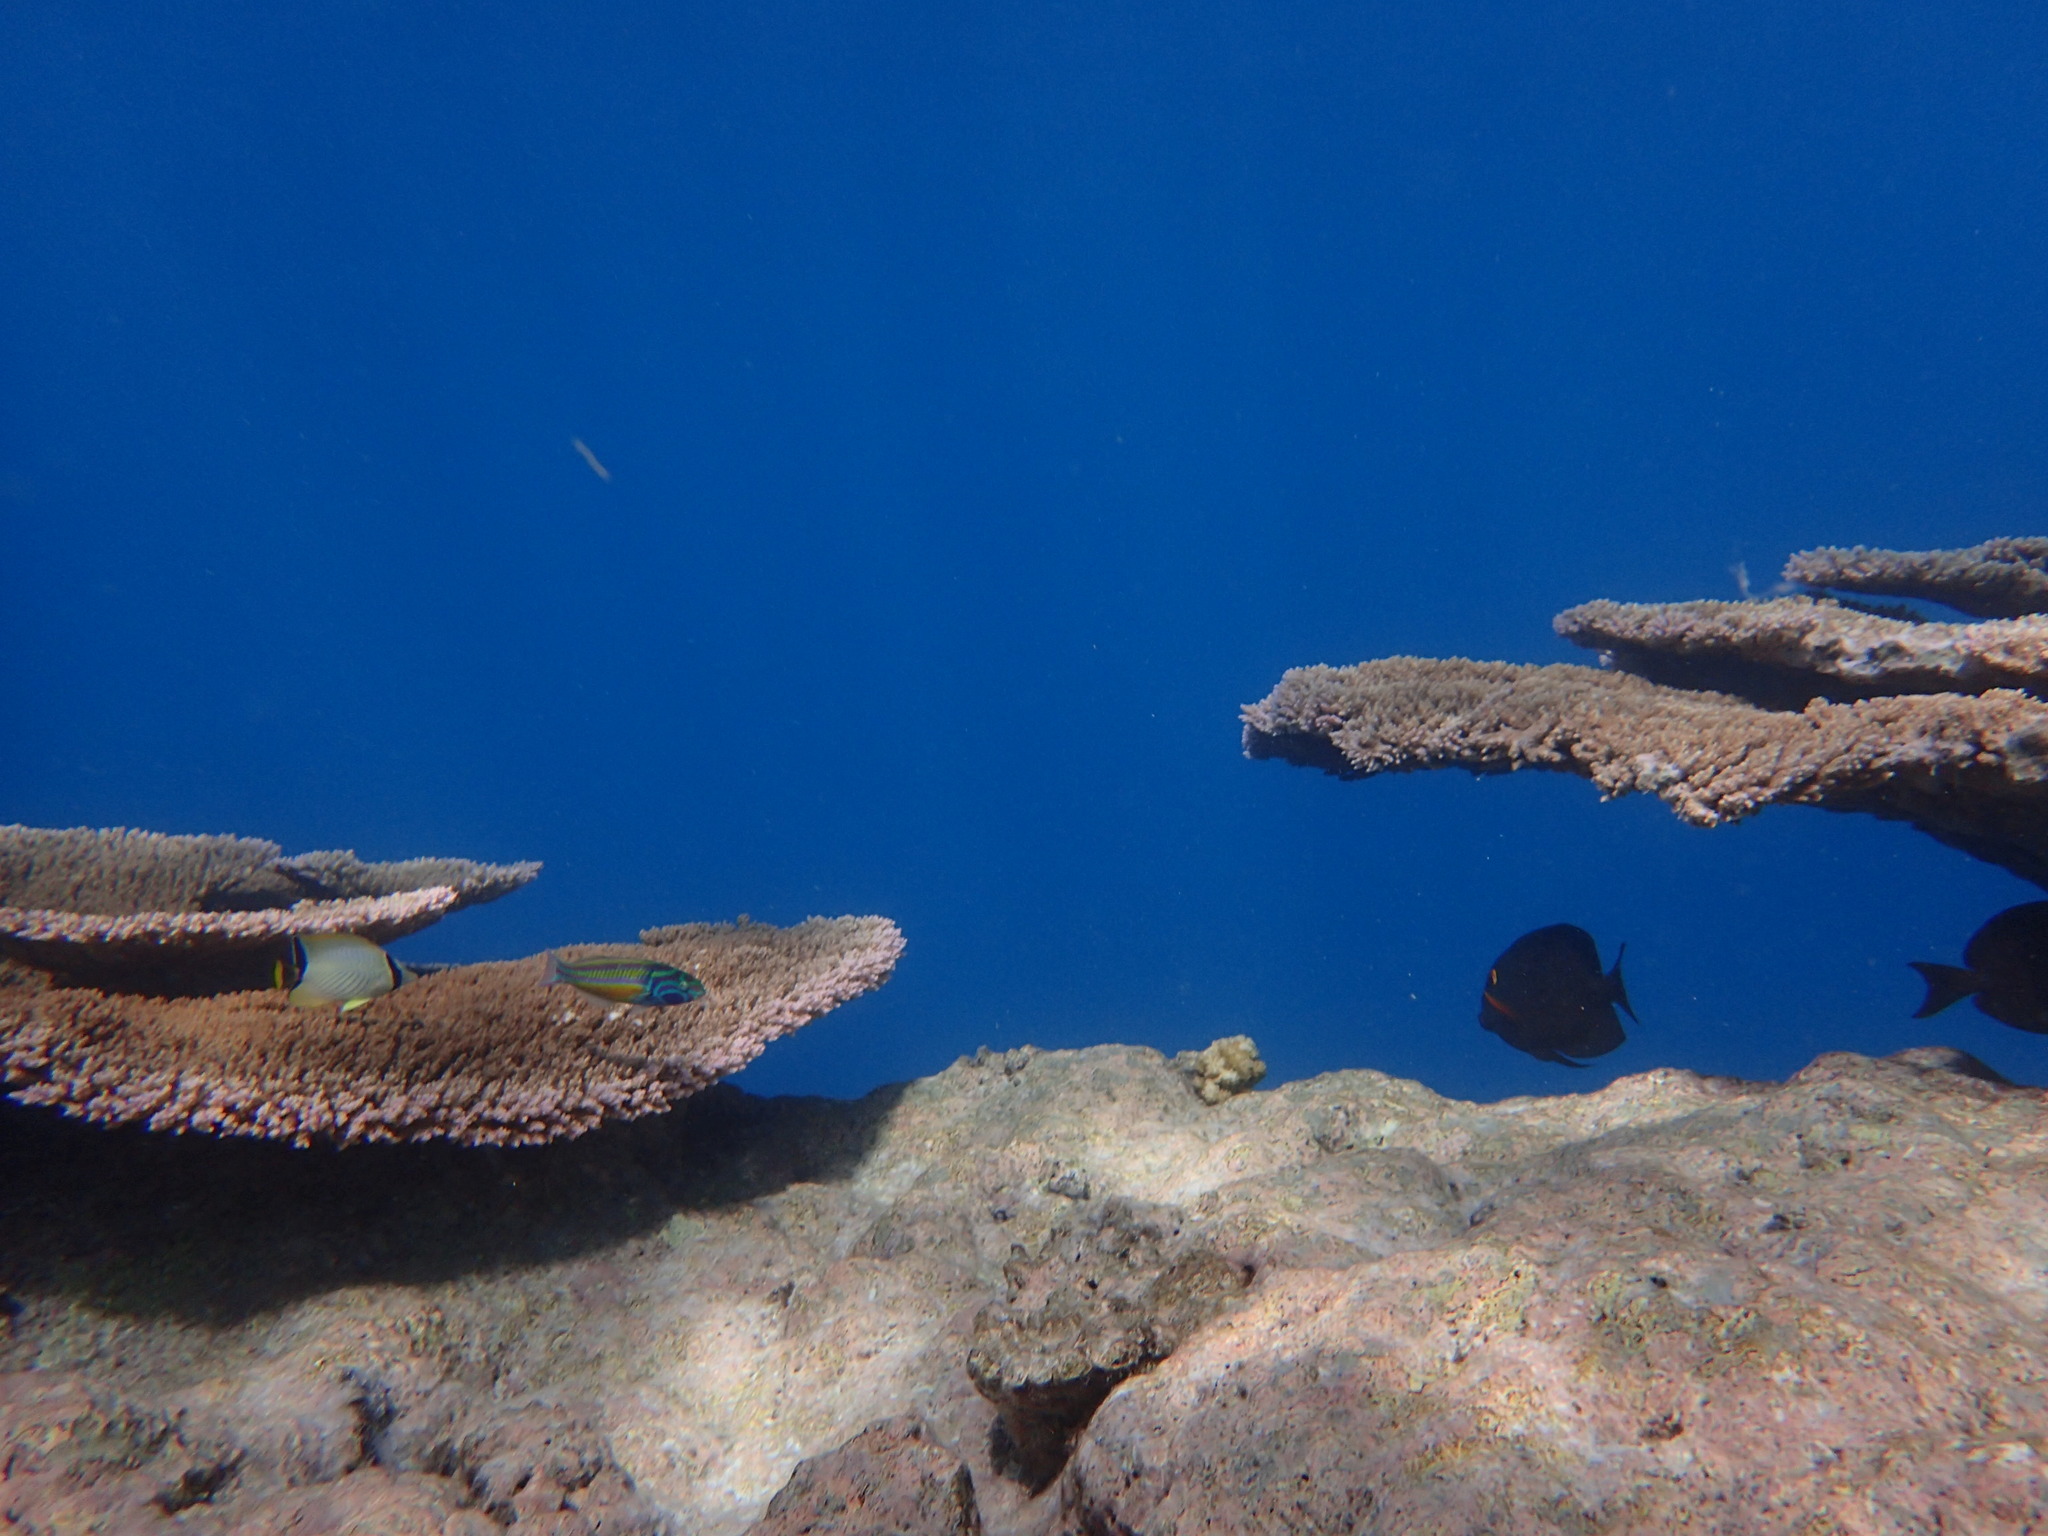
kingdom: Animalia
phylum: Chordata
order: Perciformes
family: Labridae
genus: Thalassoma
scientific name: Thalassoma quinquevittatum
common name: Five striped surge wrasse
